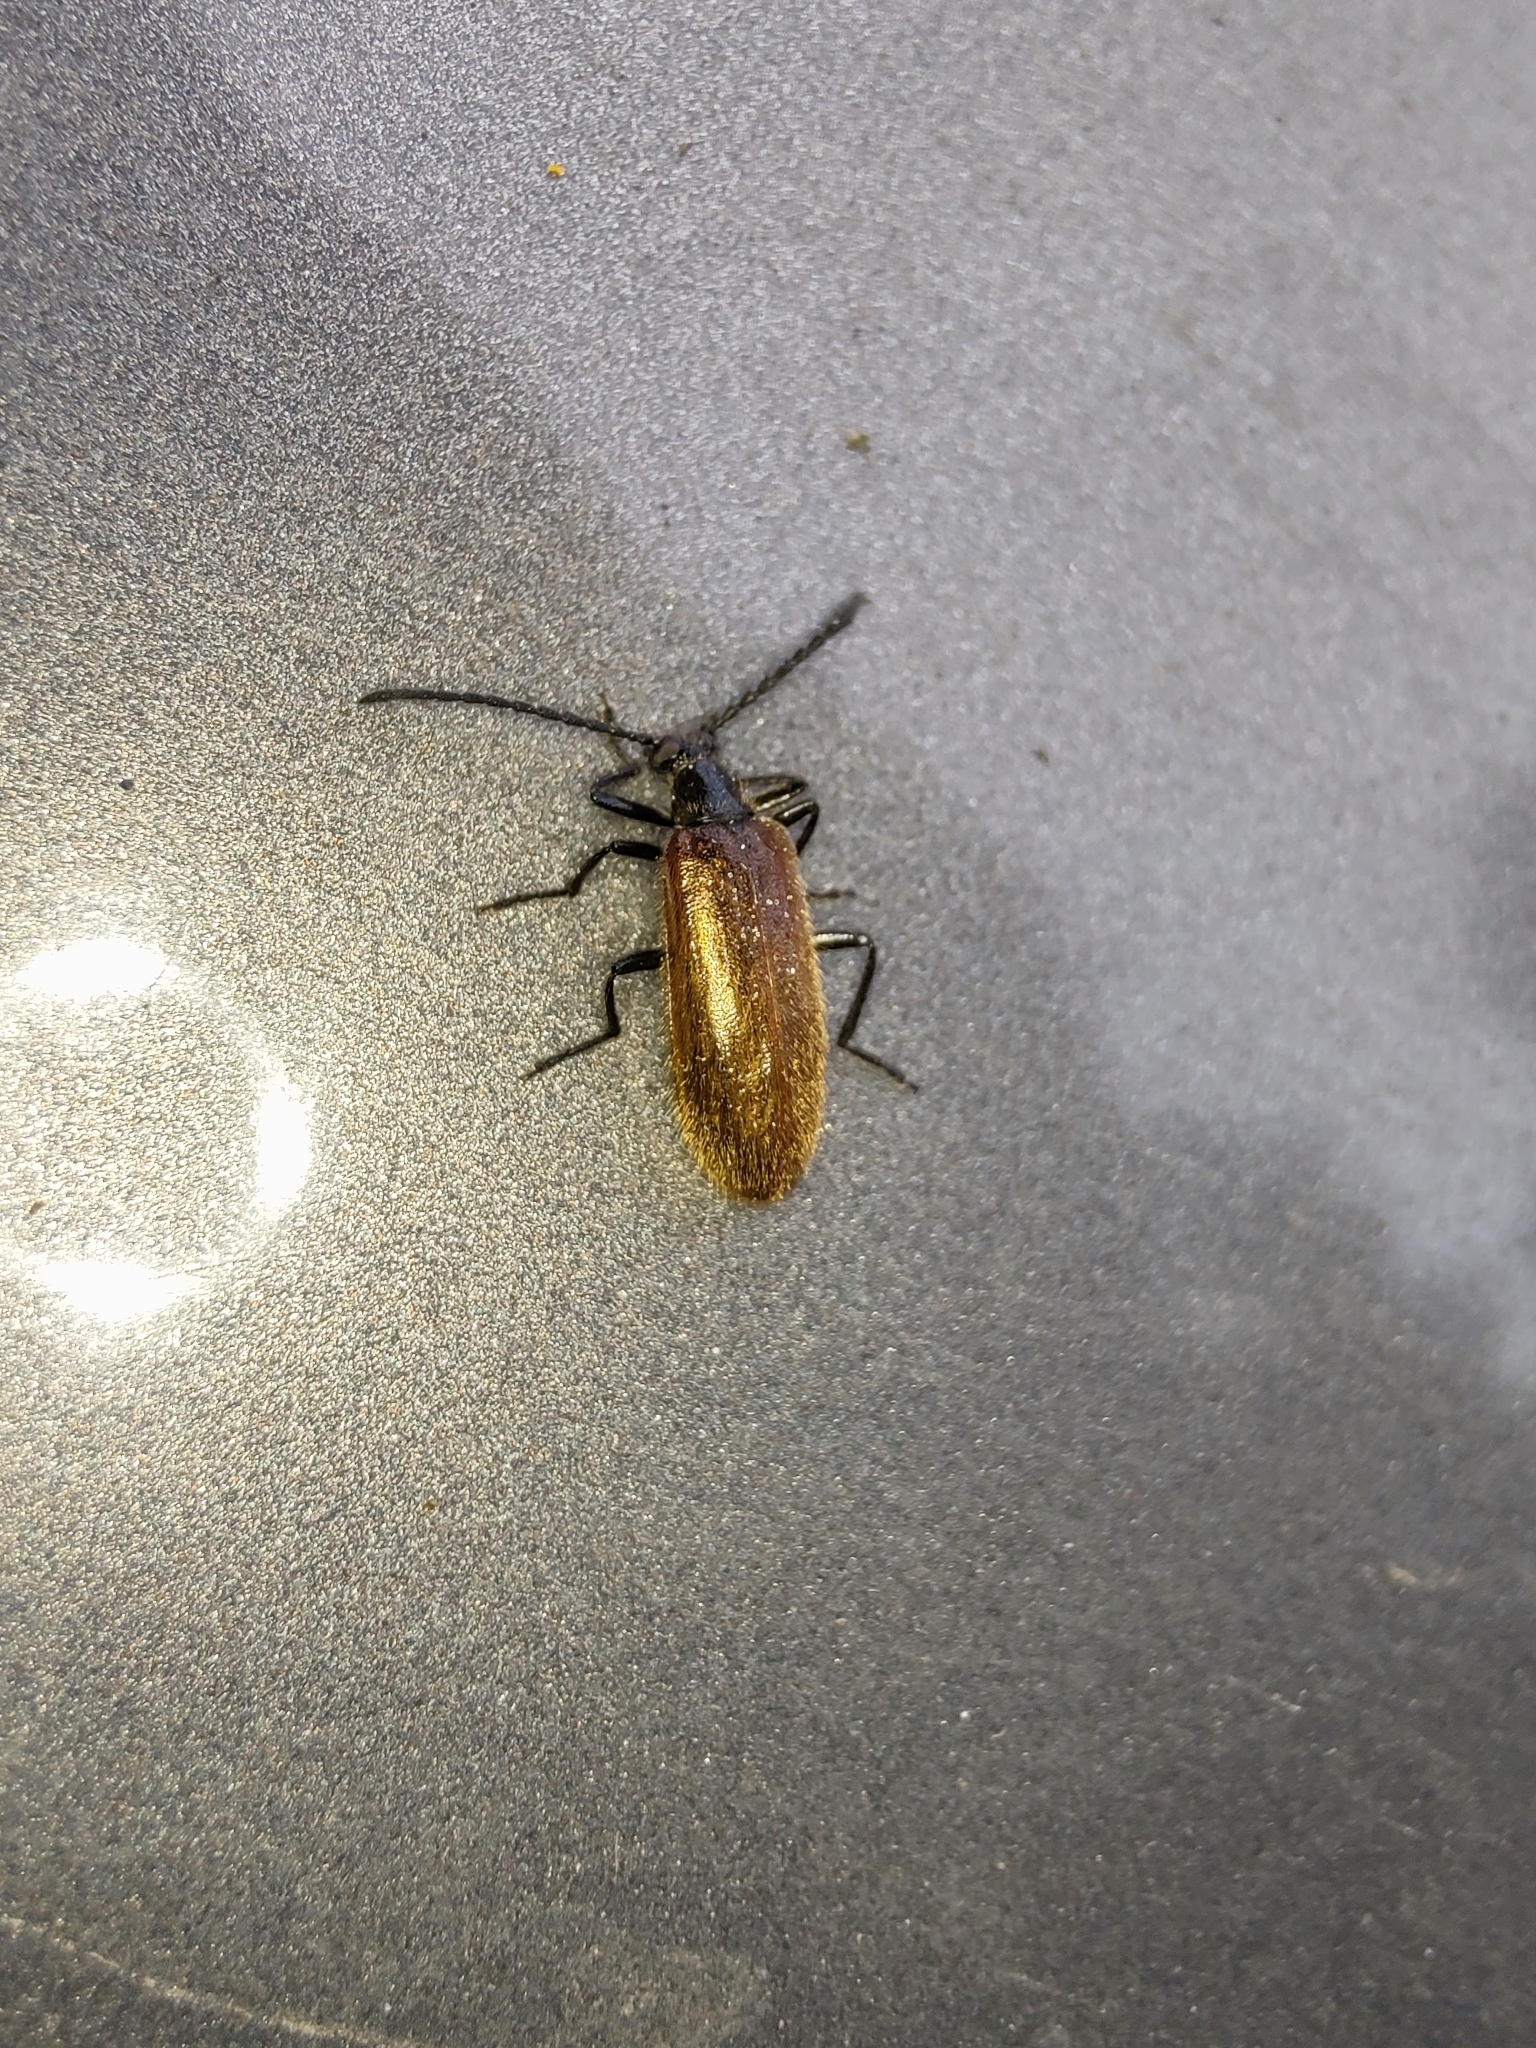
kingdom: Animalia
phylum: Arthropoda
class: Insecta
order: Coleoptera
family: Tenebrionidae
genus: Lagria
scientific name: Lagria hirta
